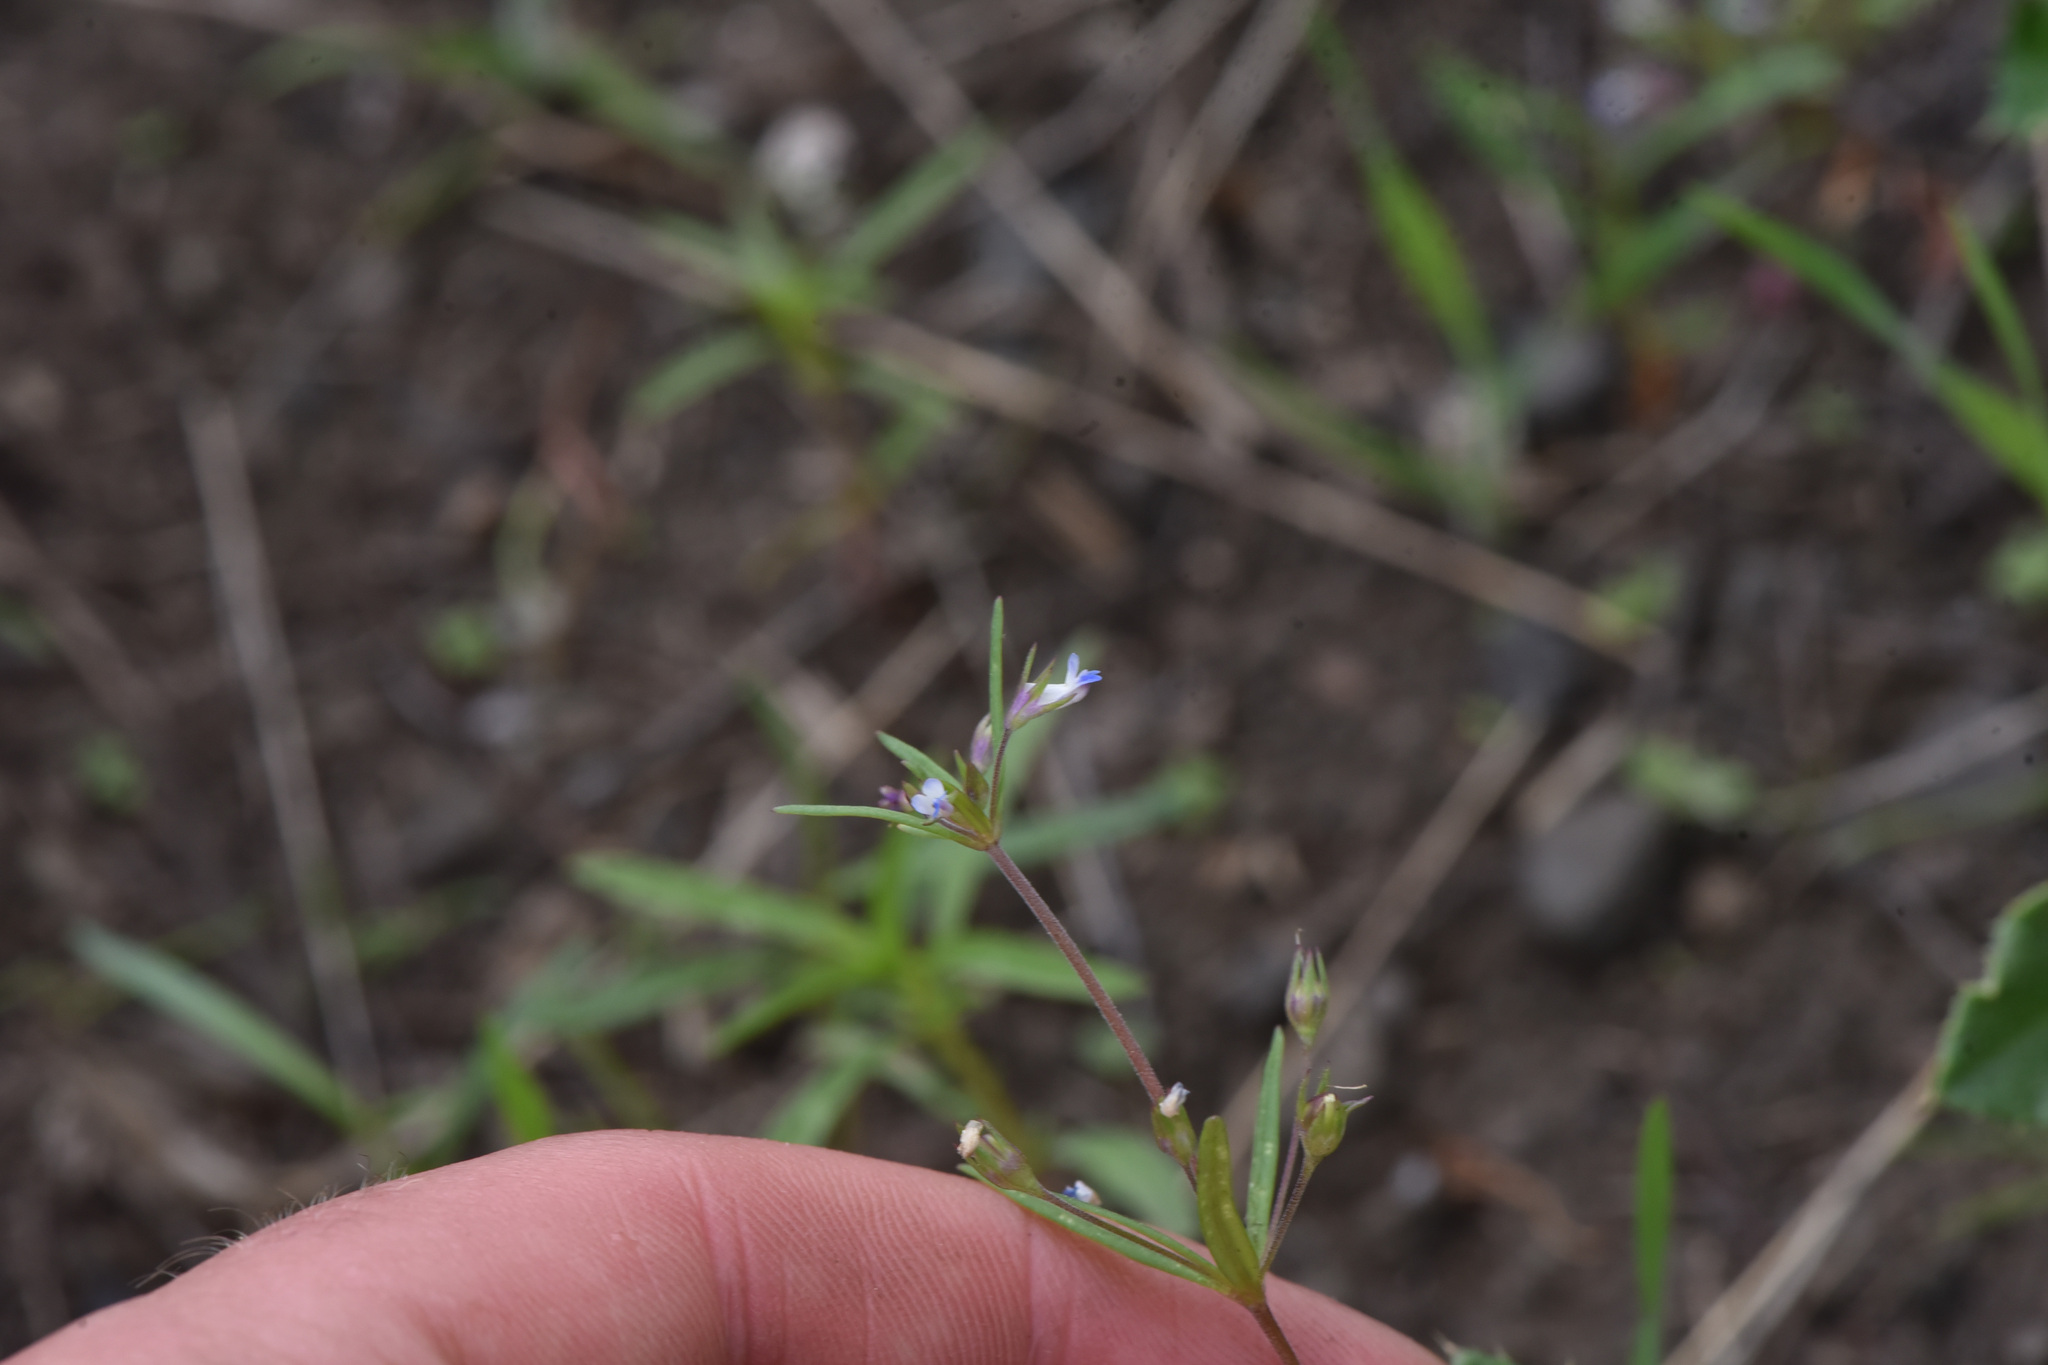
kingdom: Plantae
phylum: Tracheophyta
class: Magnoliopsida
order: Lamiales
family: Plantaginaceae
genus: Collinsia
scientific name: Collinsia parviflora
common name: Blue-lips
